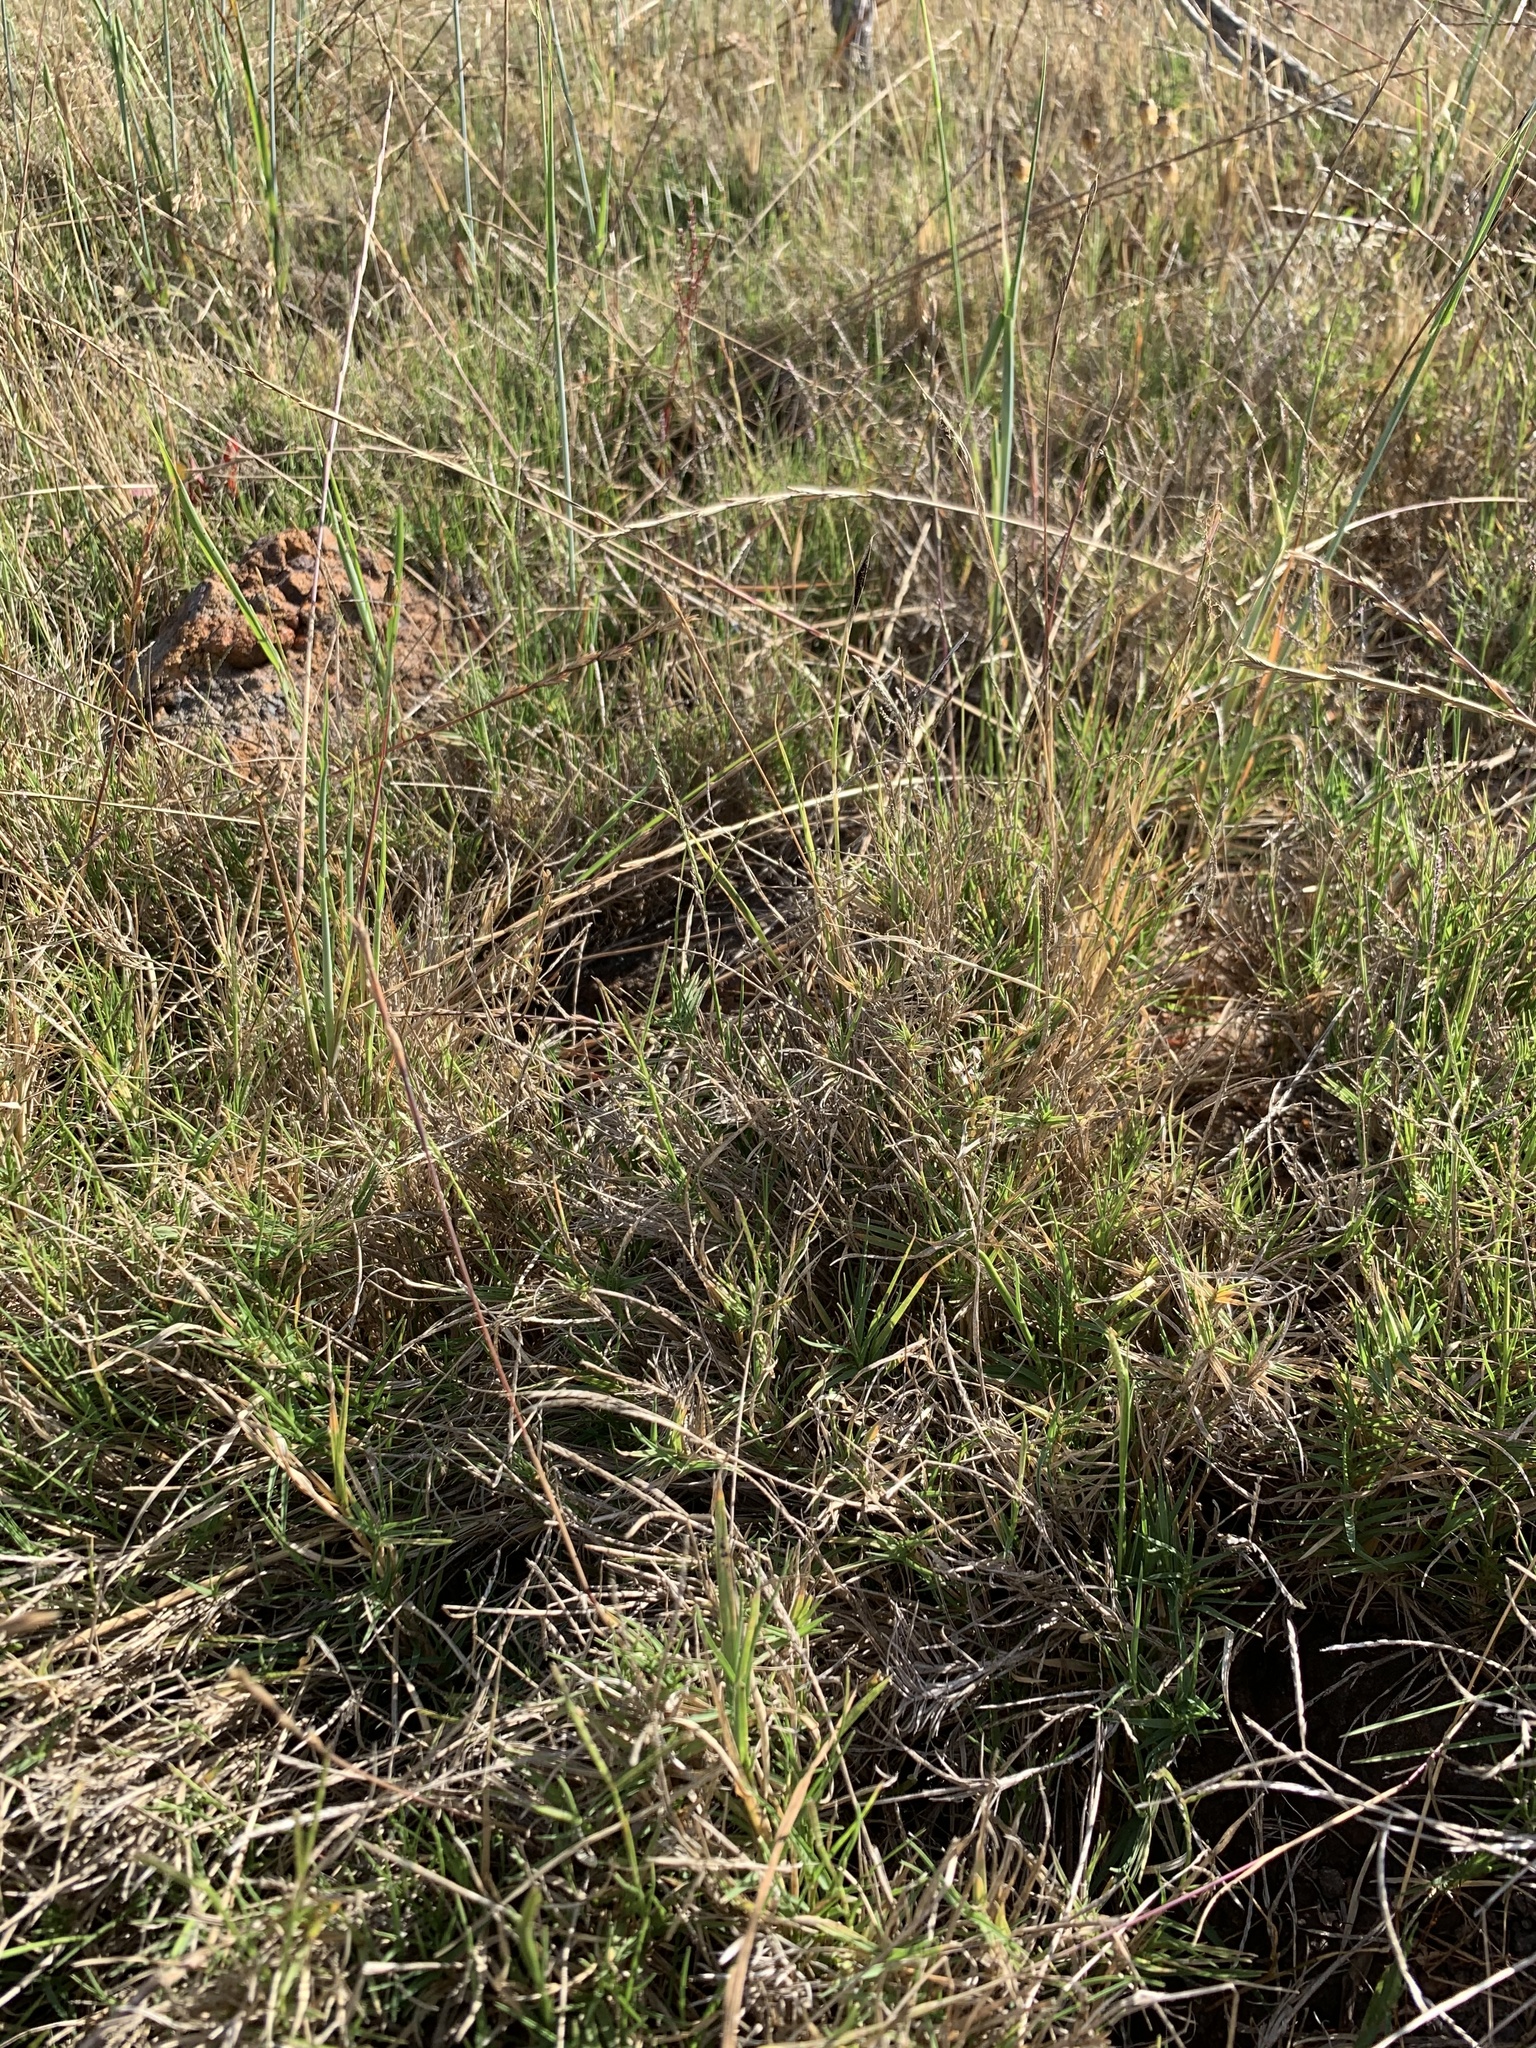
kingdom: Plantae
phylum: Tracheophyta
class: Liliopsida
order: Poales
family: Poaceae
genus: Cynodon
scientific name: Cynodon dactylon
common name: Bermuda grass
